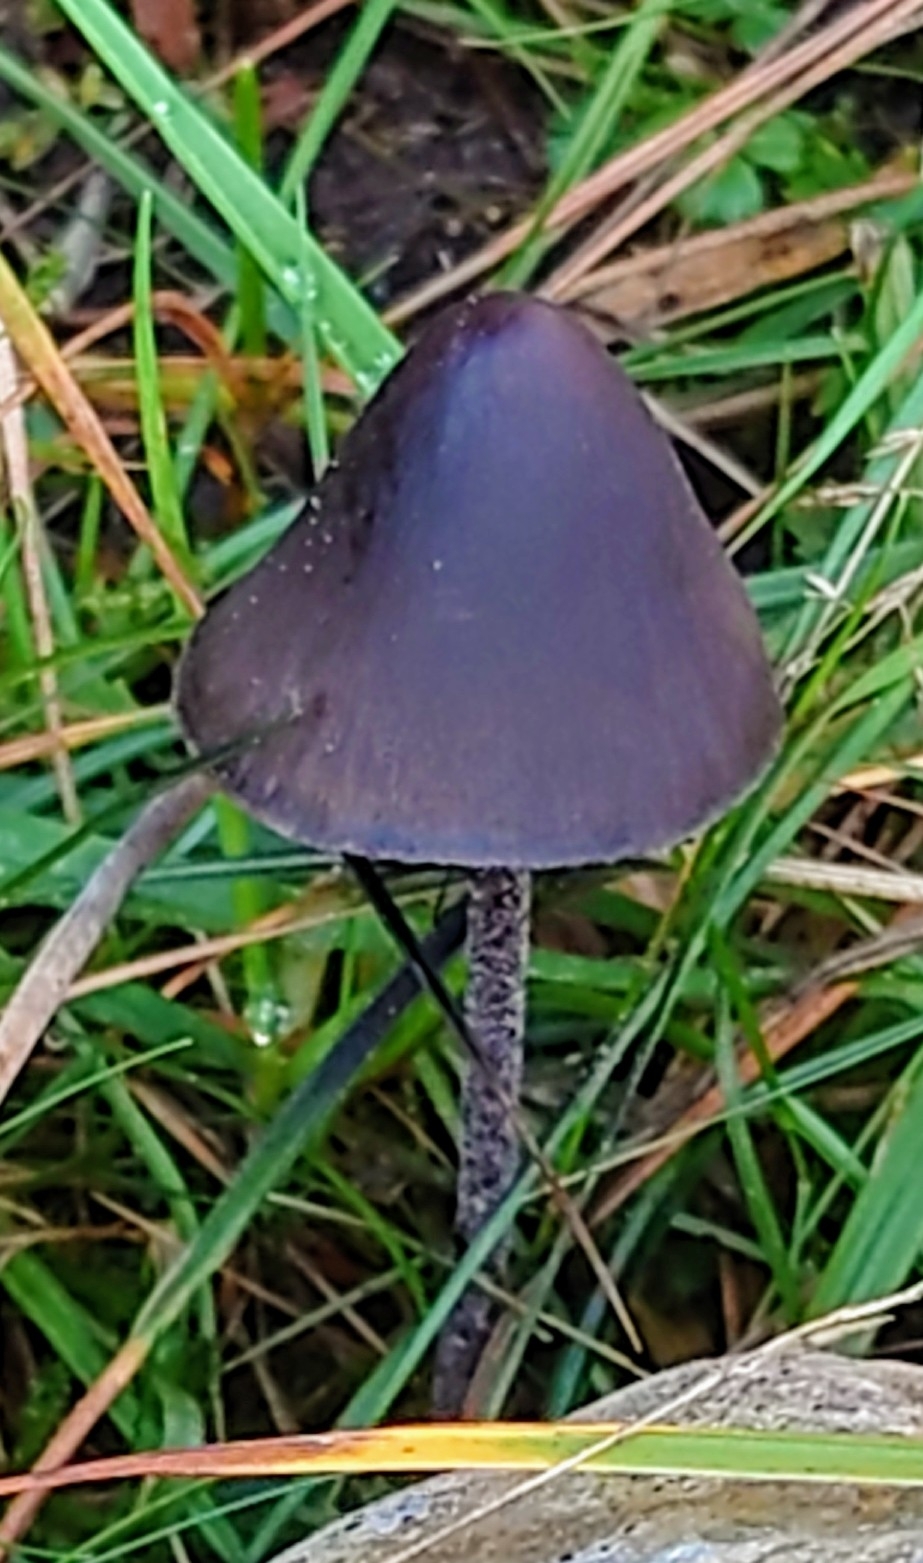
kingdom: Fungi
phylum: Basidiomycota
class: Agaricomycetes
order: Agaricales
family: Bolbitiaceae
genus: Panaeolus
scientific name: Panaeolus acuminatus
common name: Dewdrop mottlegill
